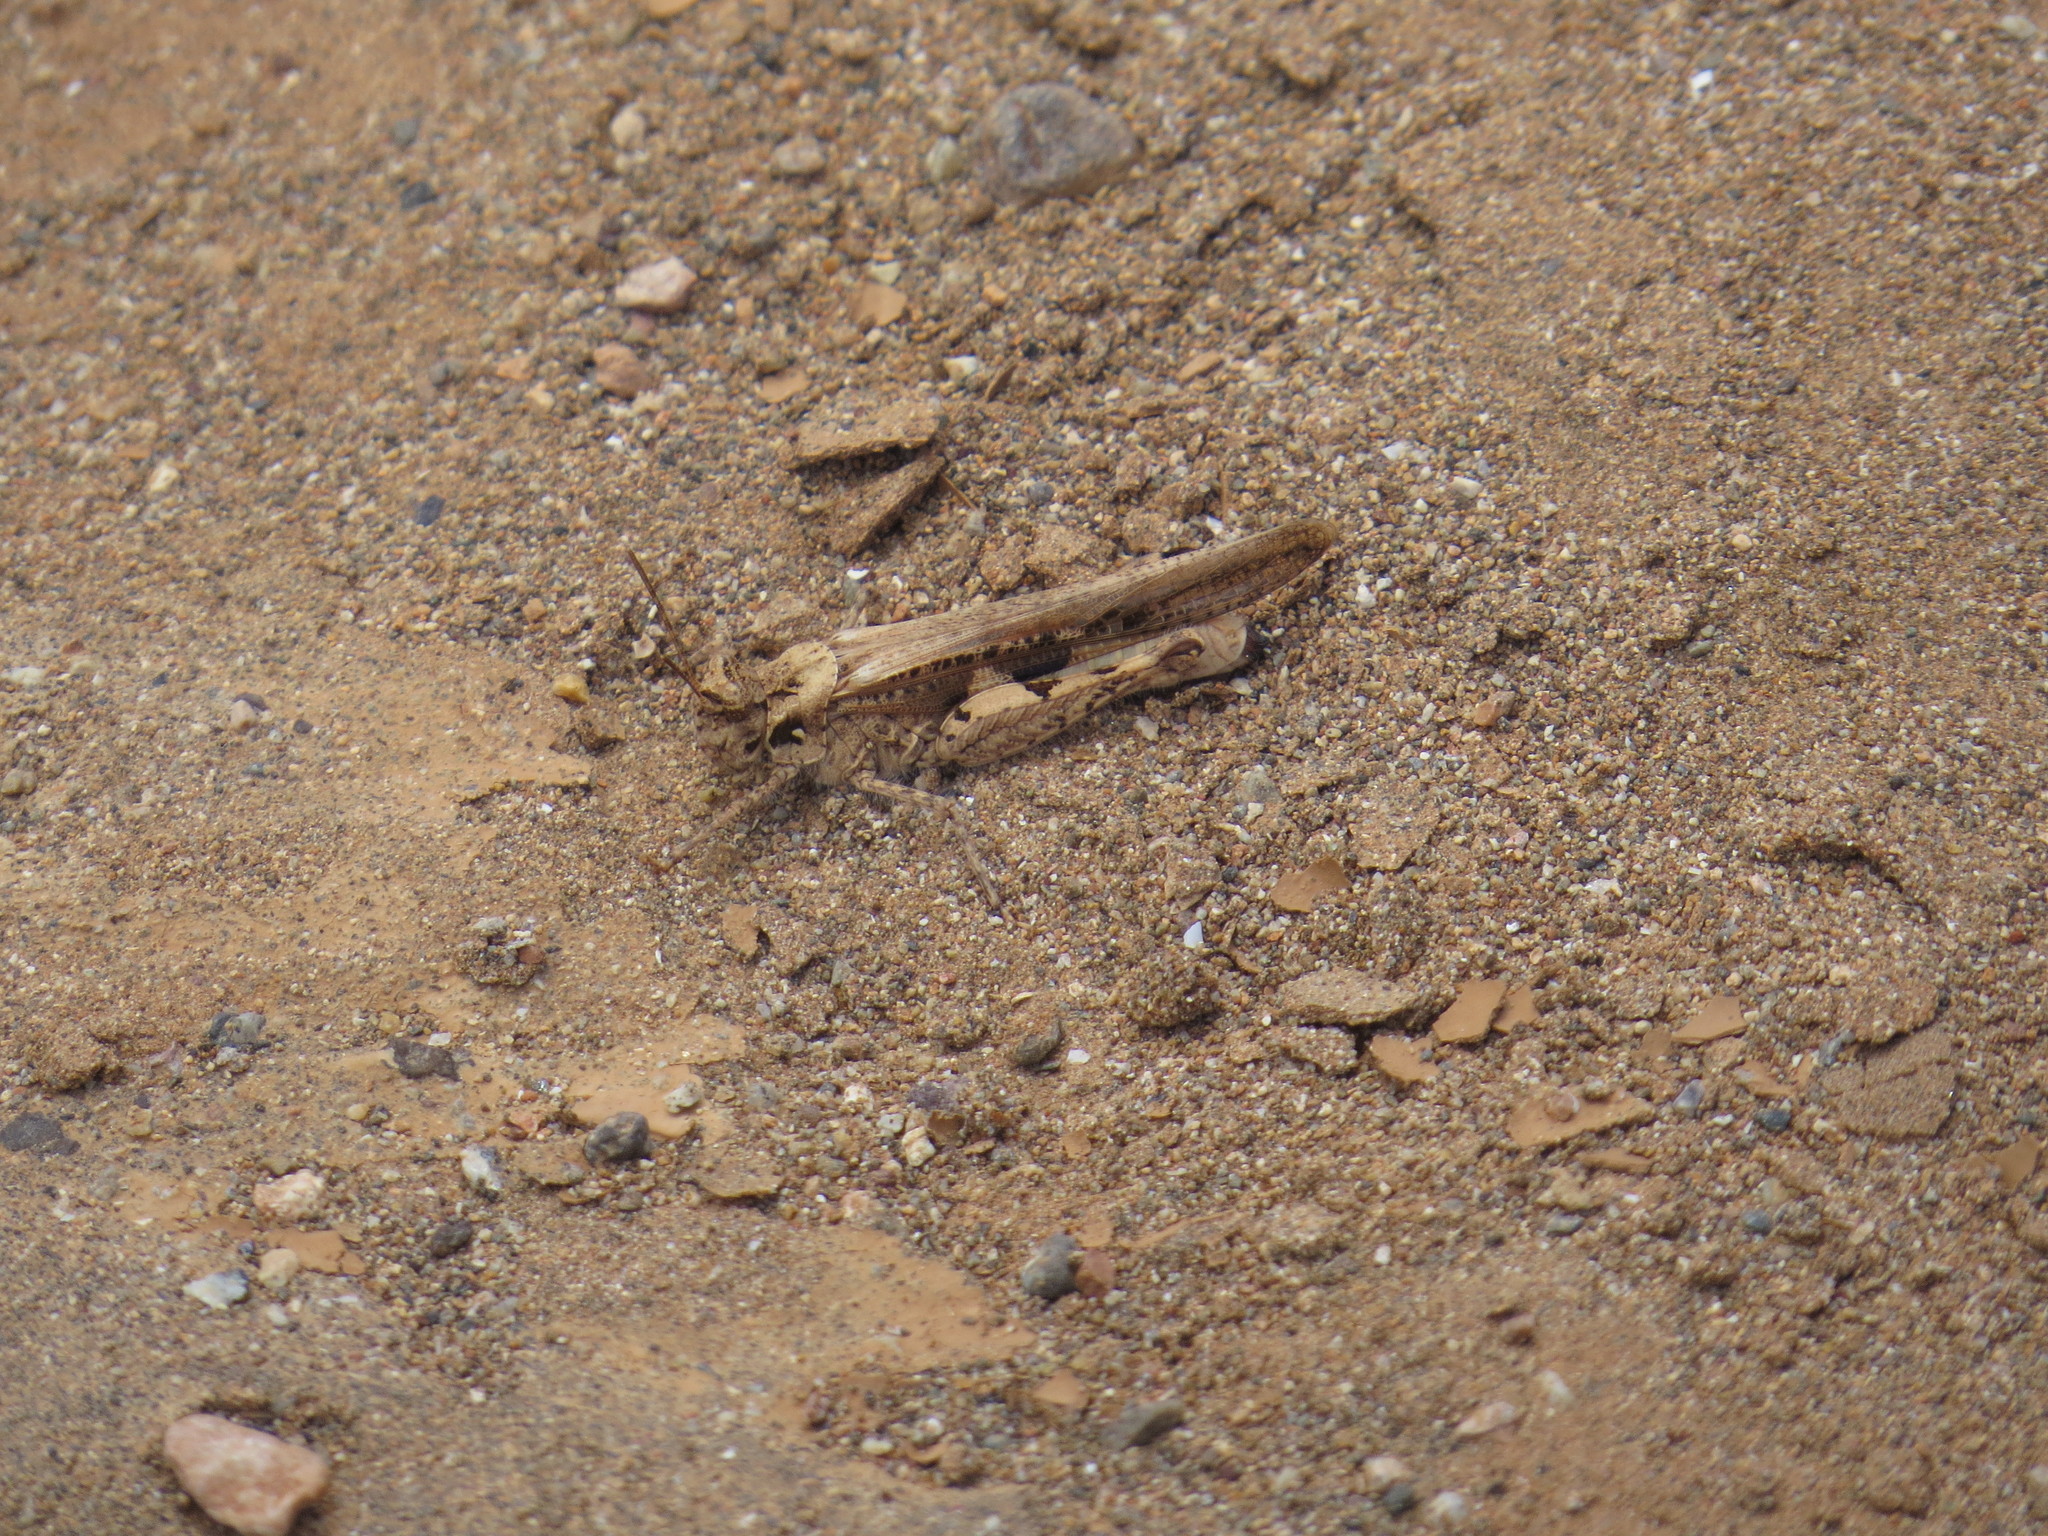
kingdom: Animalia
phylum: Arthropoda
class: Insecta
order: Orthoptera
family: Acrididae
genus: Acrotylus
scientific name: Acrotylus insubricus
